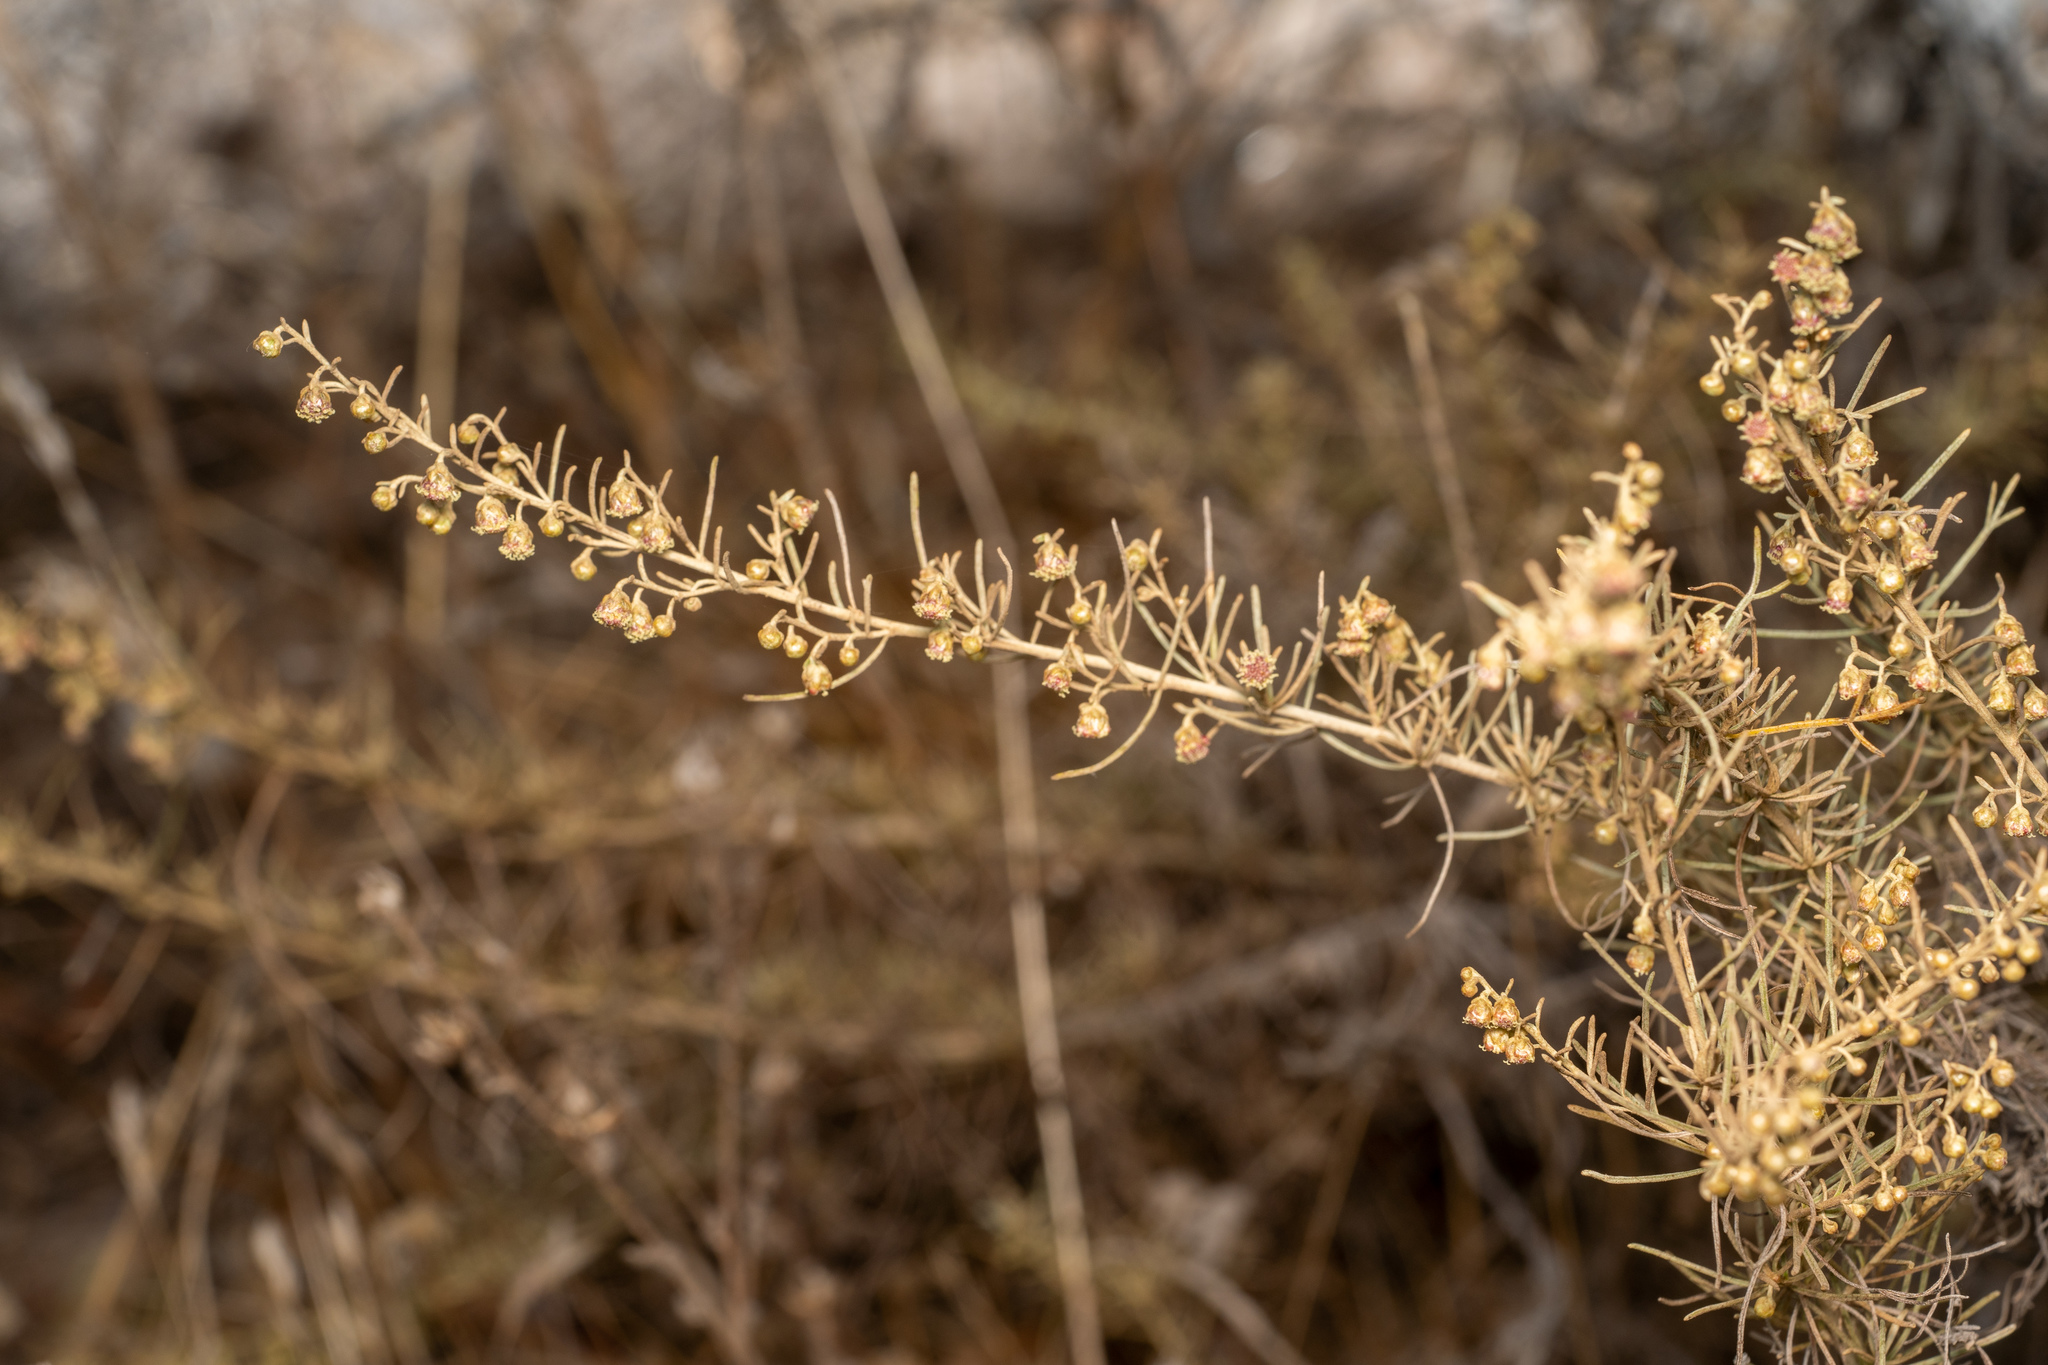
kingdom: Plantae
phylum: Tracheophyta
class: Magnoliopsida
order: Asterales
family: Asteraceae
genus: Artemisia
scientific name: Artemisia californica
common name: California sagebrush
